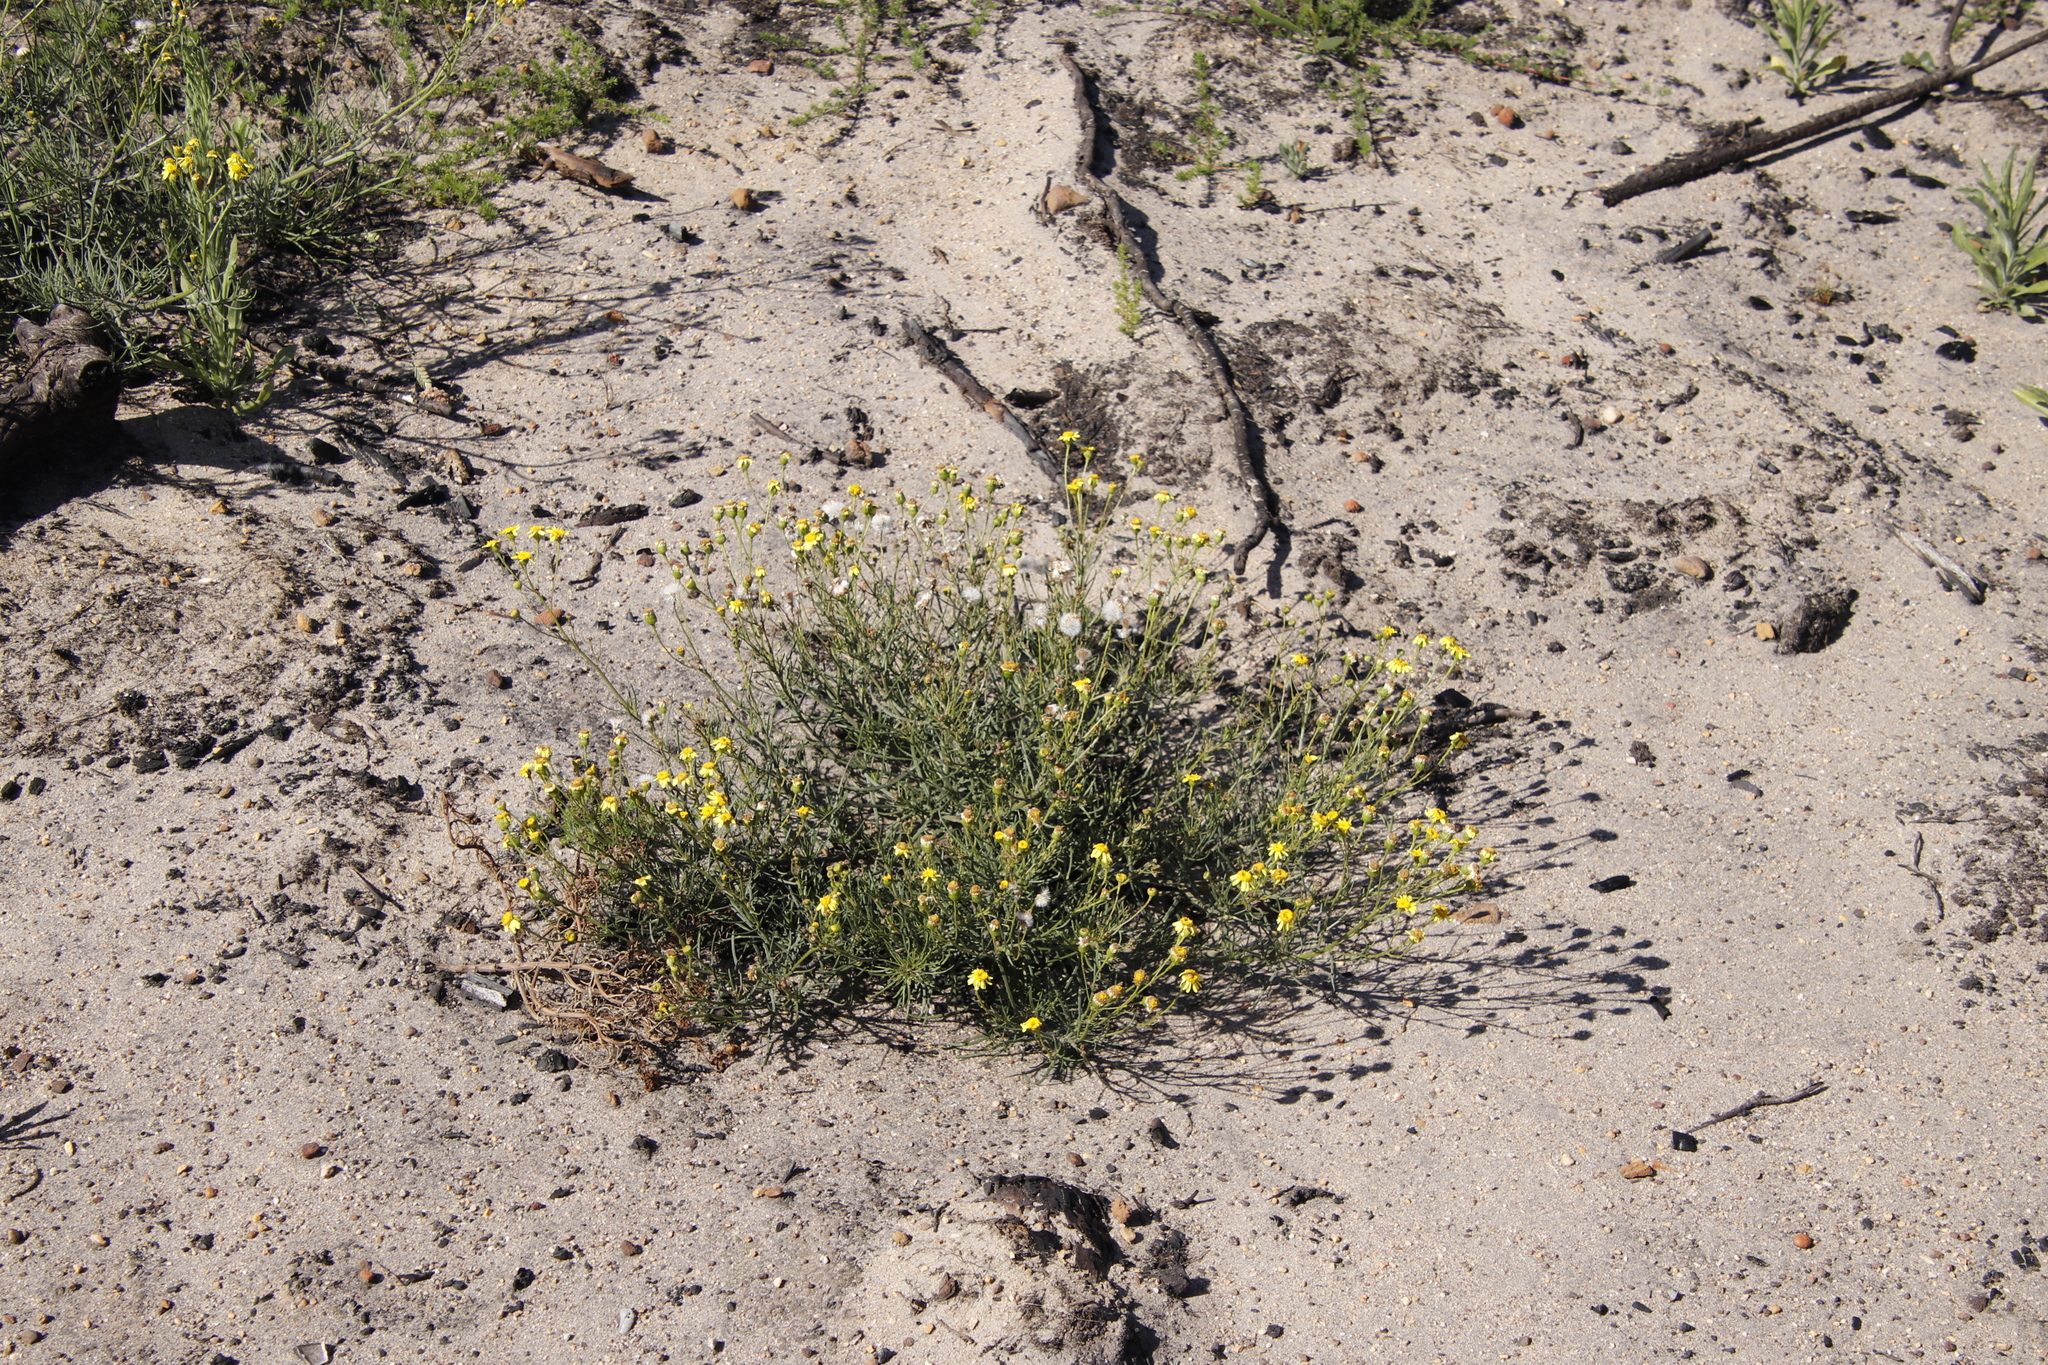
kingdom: Plantae
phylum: Tracheophyta
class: Magnoliopsida
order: Asterales
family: Asteraceae
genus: Senecio
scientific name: Senecio burchellii
